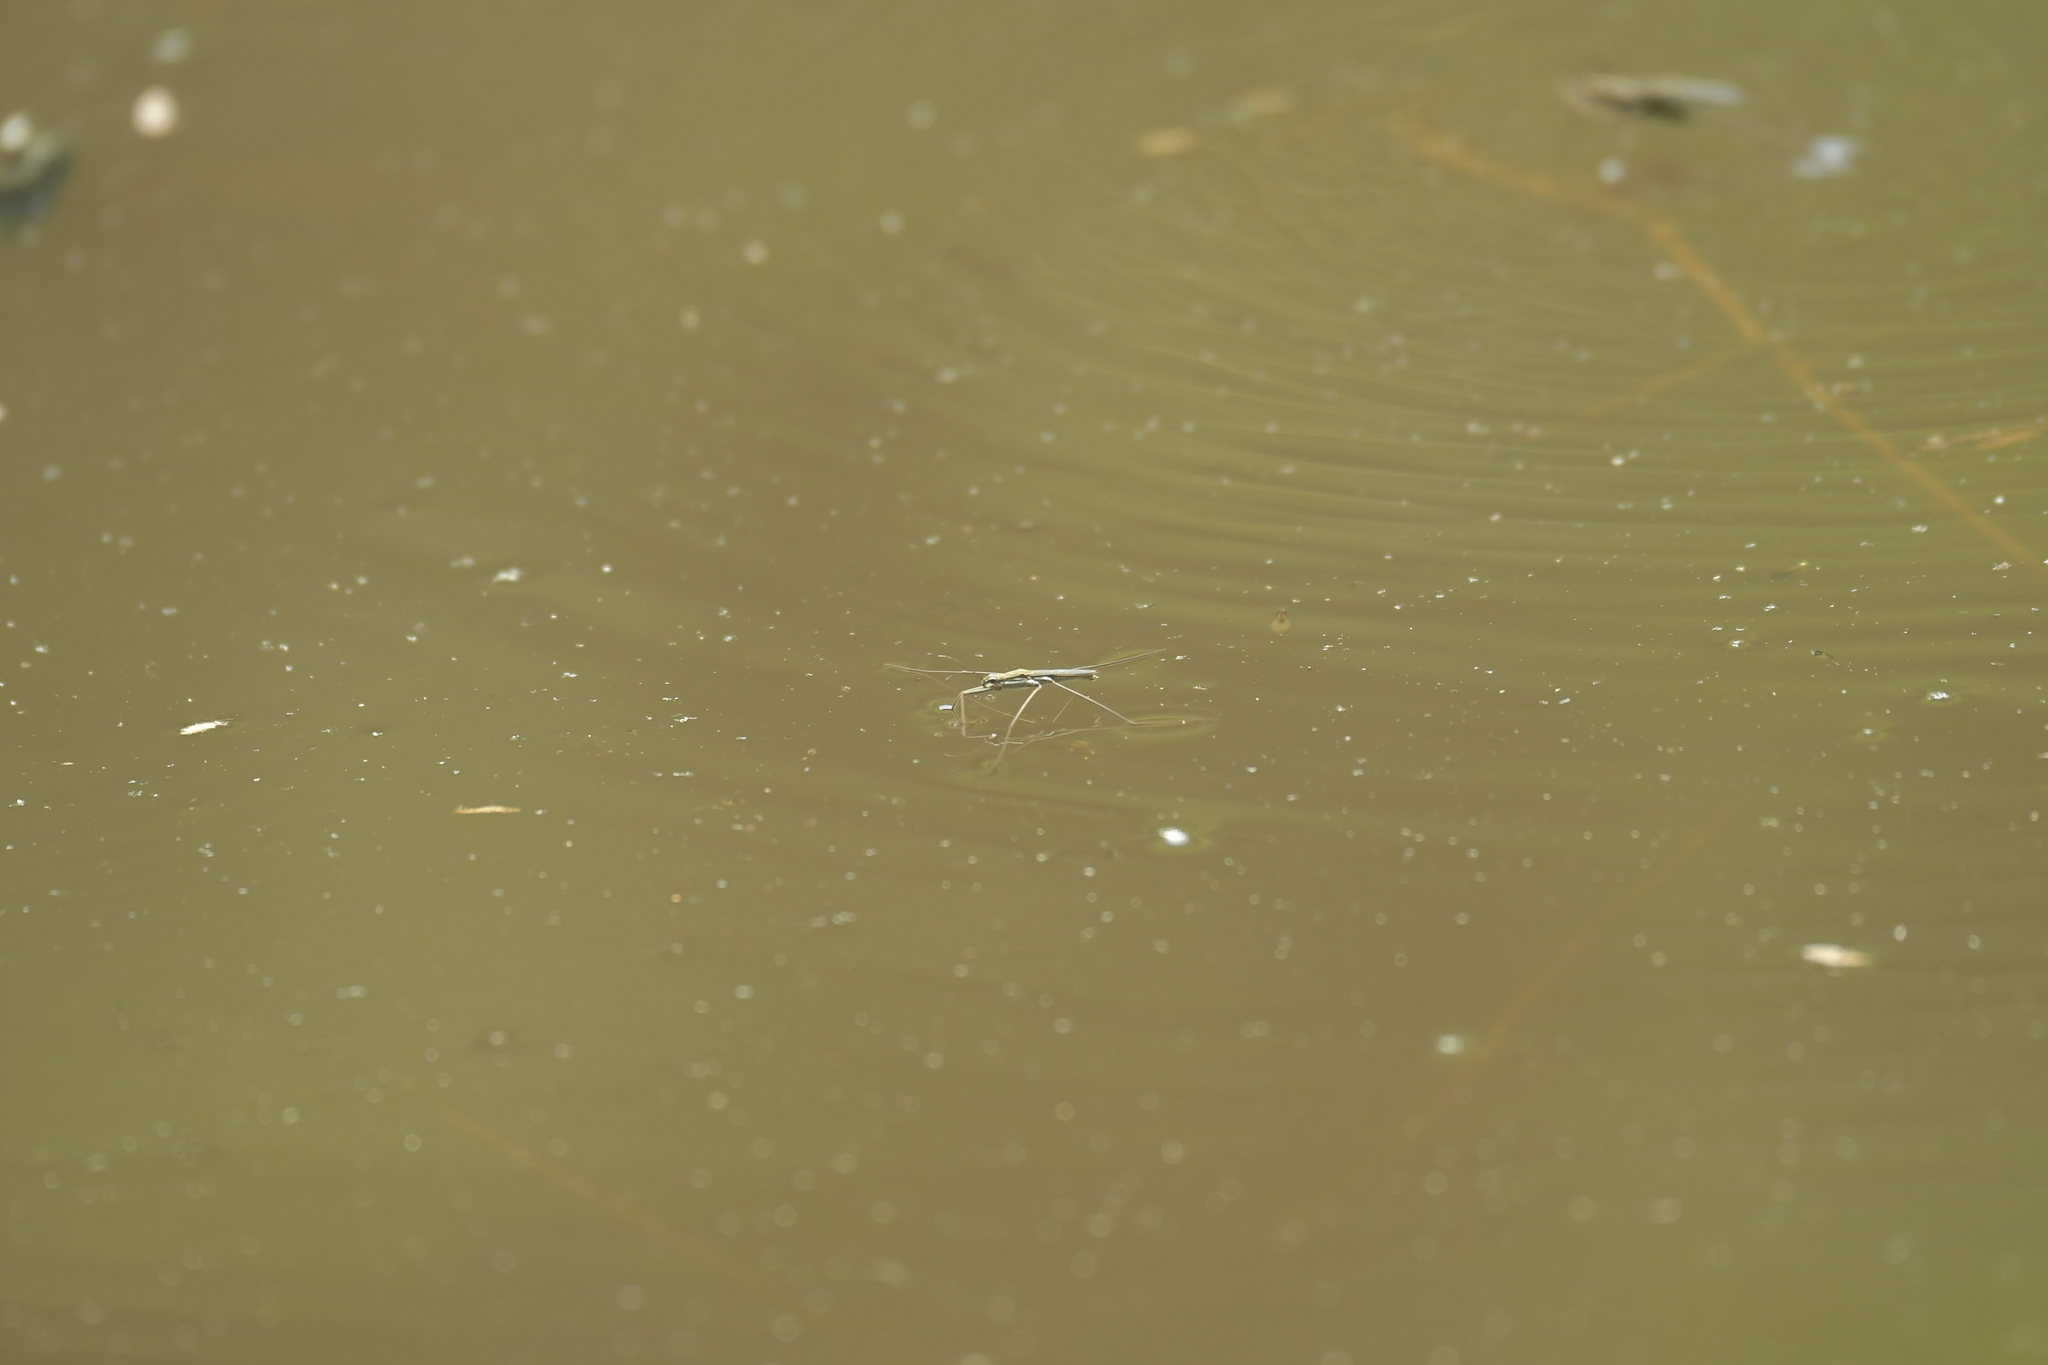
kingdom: Animalia
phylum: Arthropoda
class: Insecta
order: Hemiptera
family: Gerridae
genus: Aquarius
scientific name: Aquarius paludum
